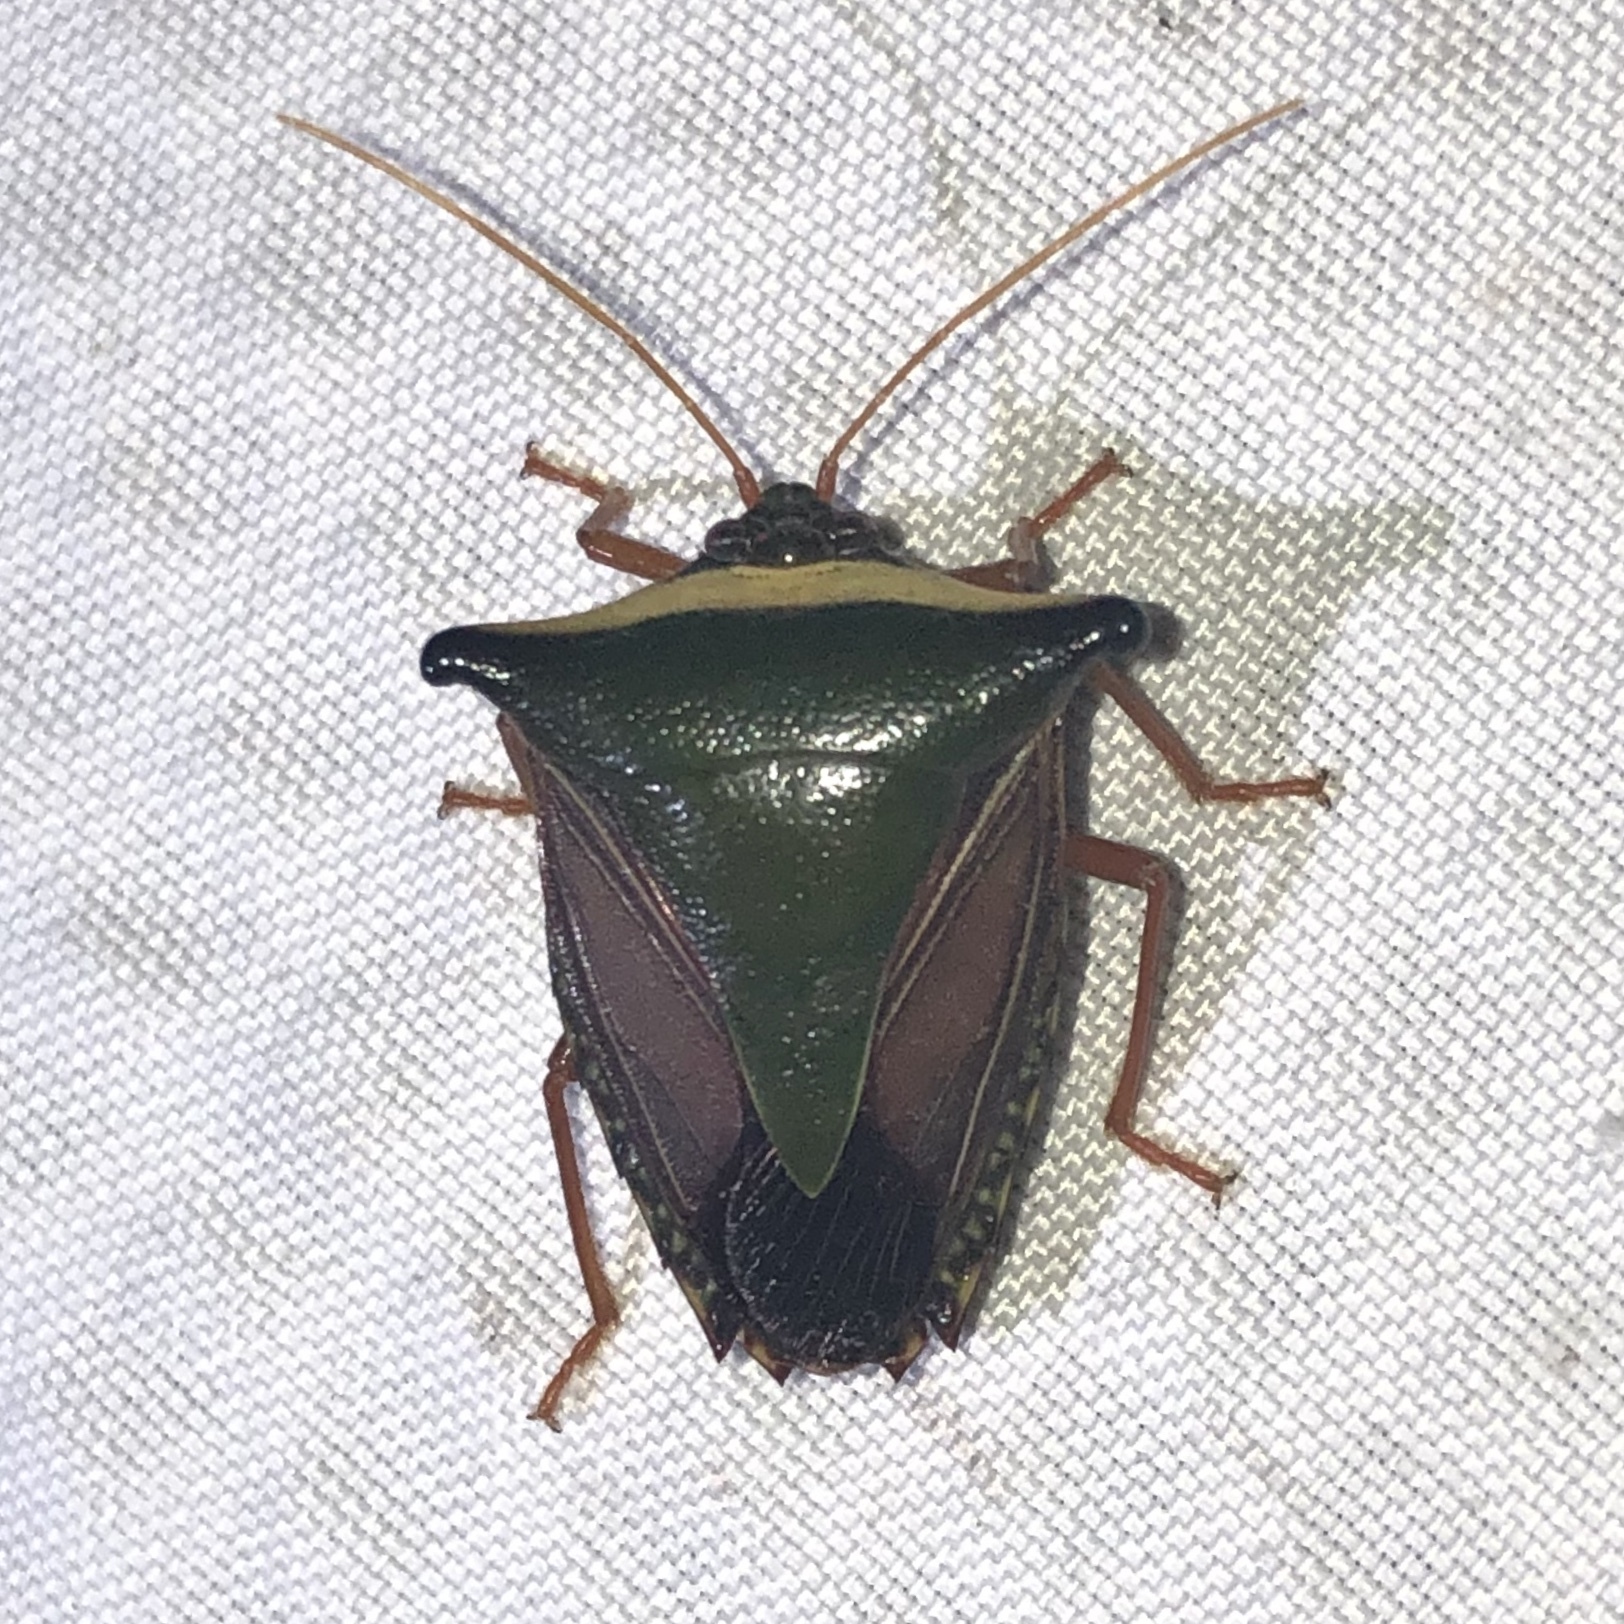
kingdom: Animalia
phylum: Arthropoda
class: Insecta
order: Hemiptera
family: Pentatomidae
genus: Edessa
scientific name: Edessa pictiventris
